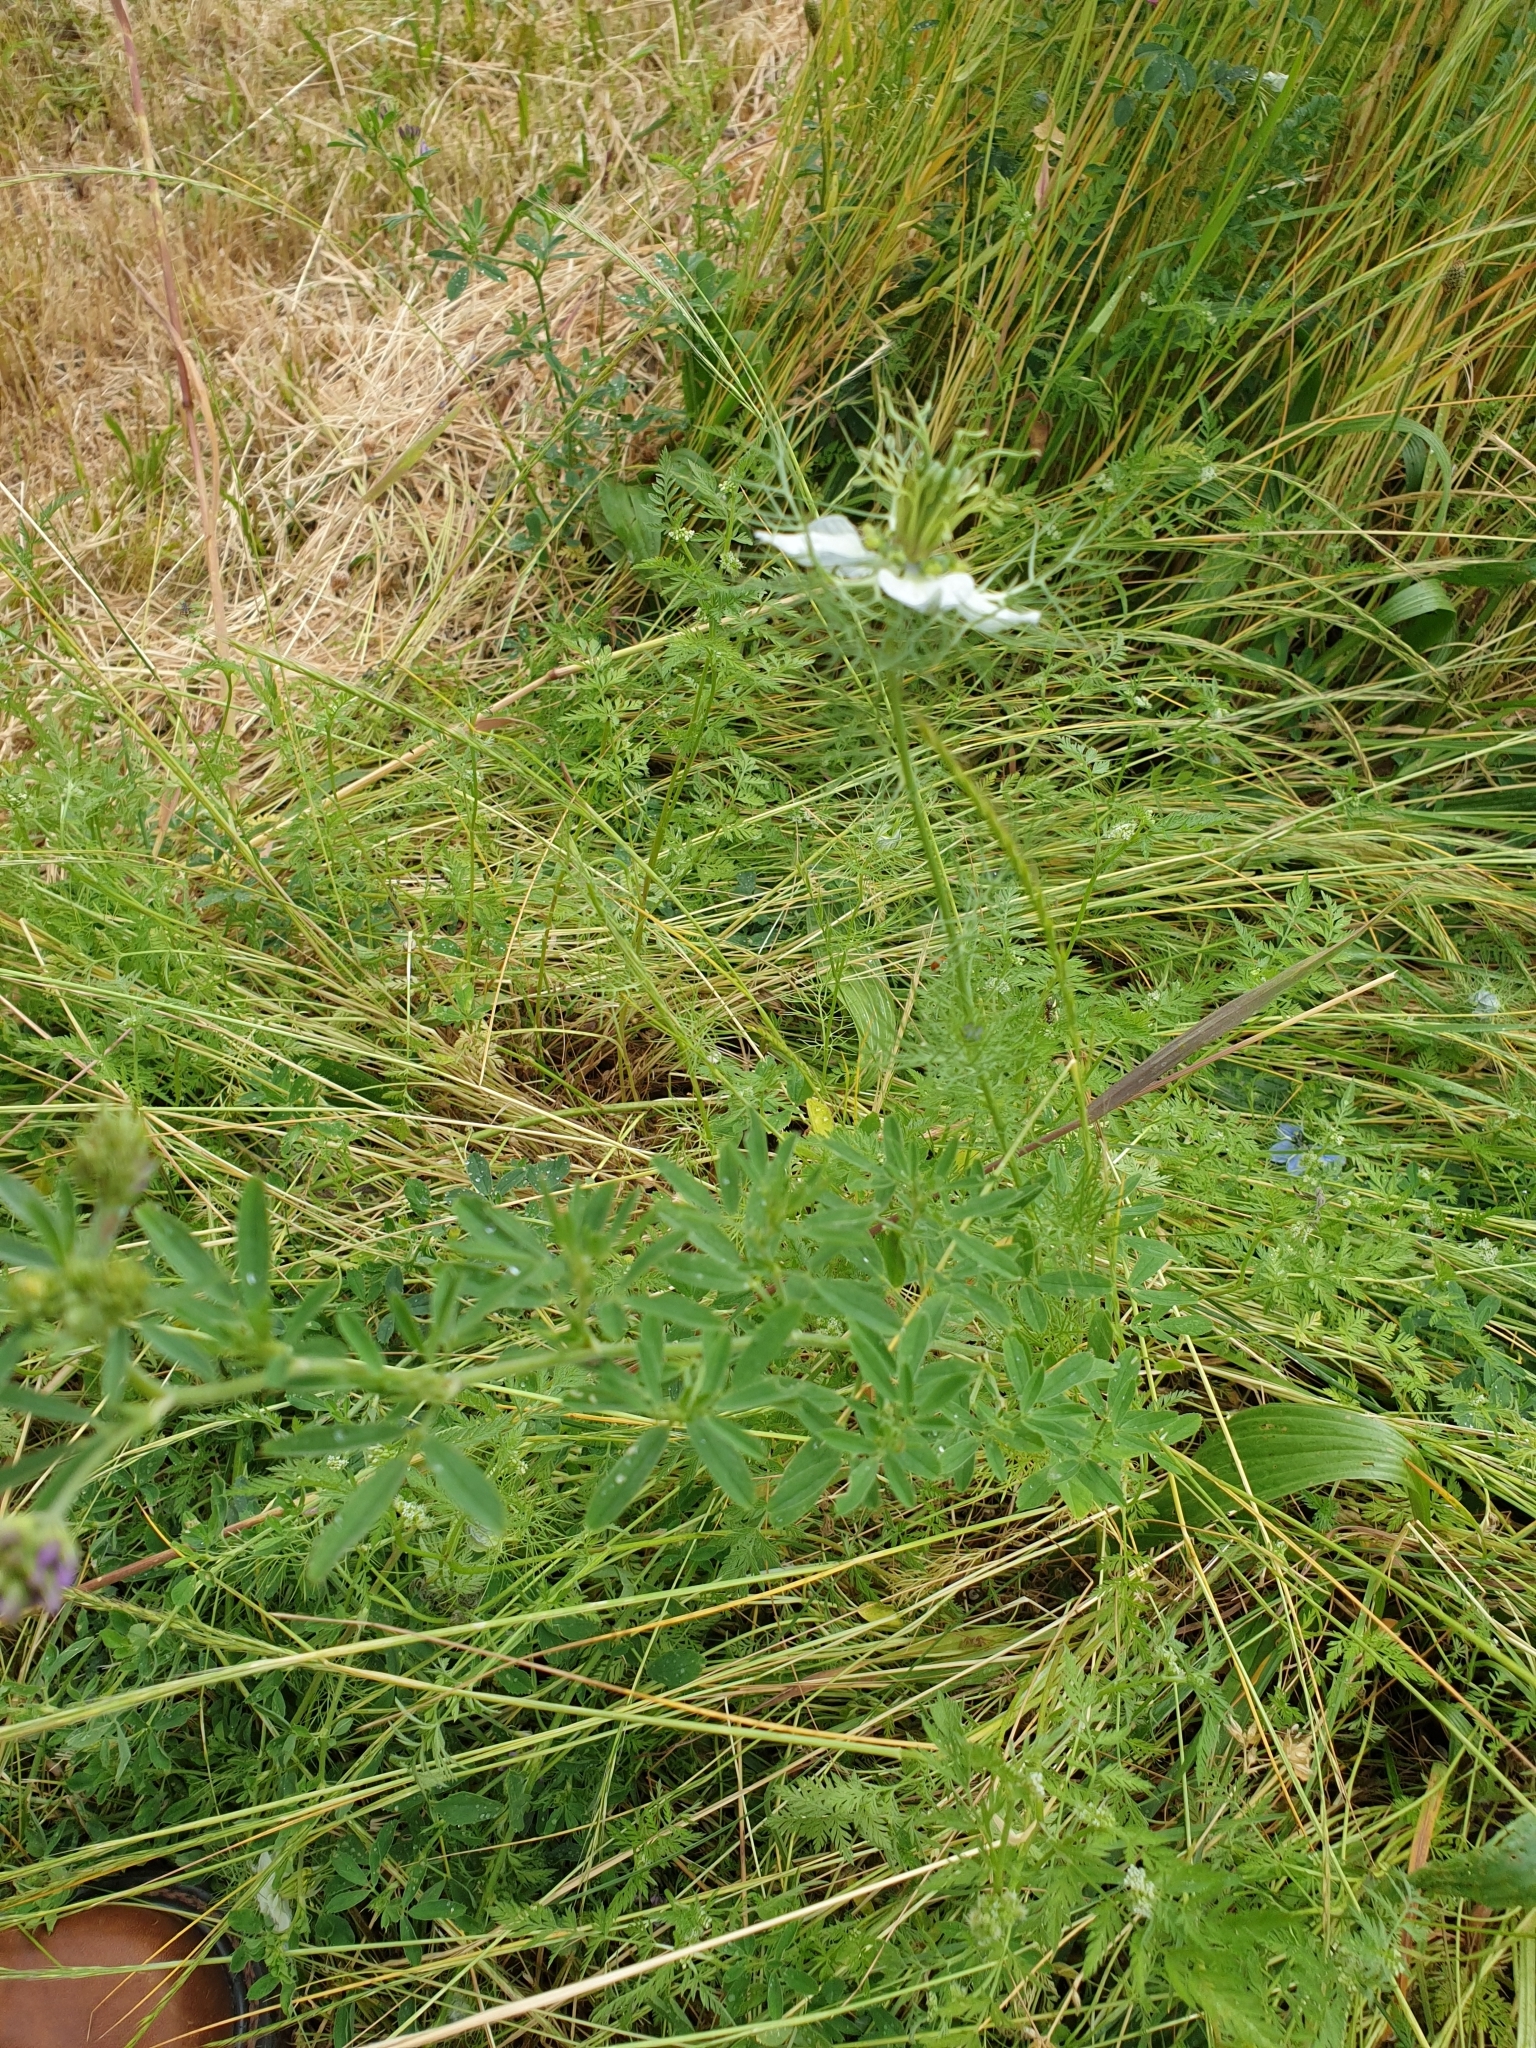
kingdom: Plantae
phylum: Tracheophyta
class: Magnoliopsida
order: Ranunculales
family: Ranunculaceae
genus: Nigella
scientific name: Nigella damascena
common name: Love-in-a-mist
